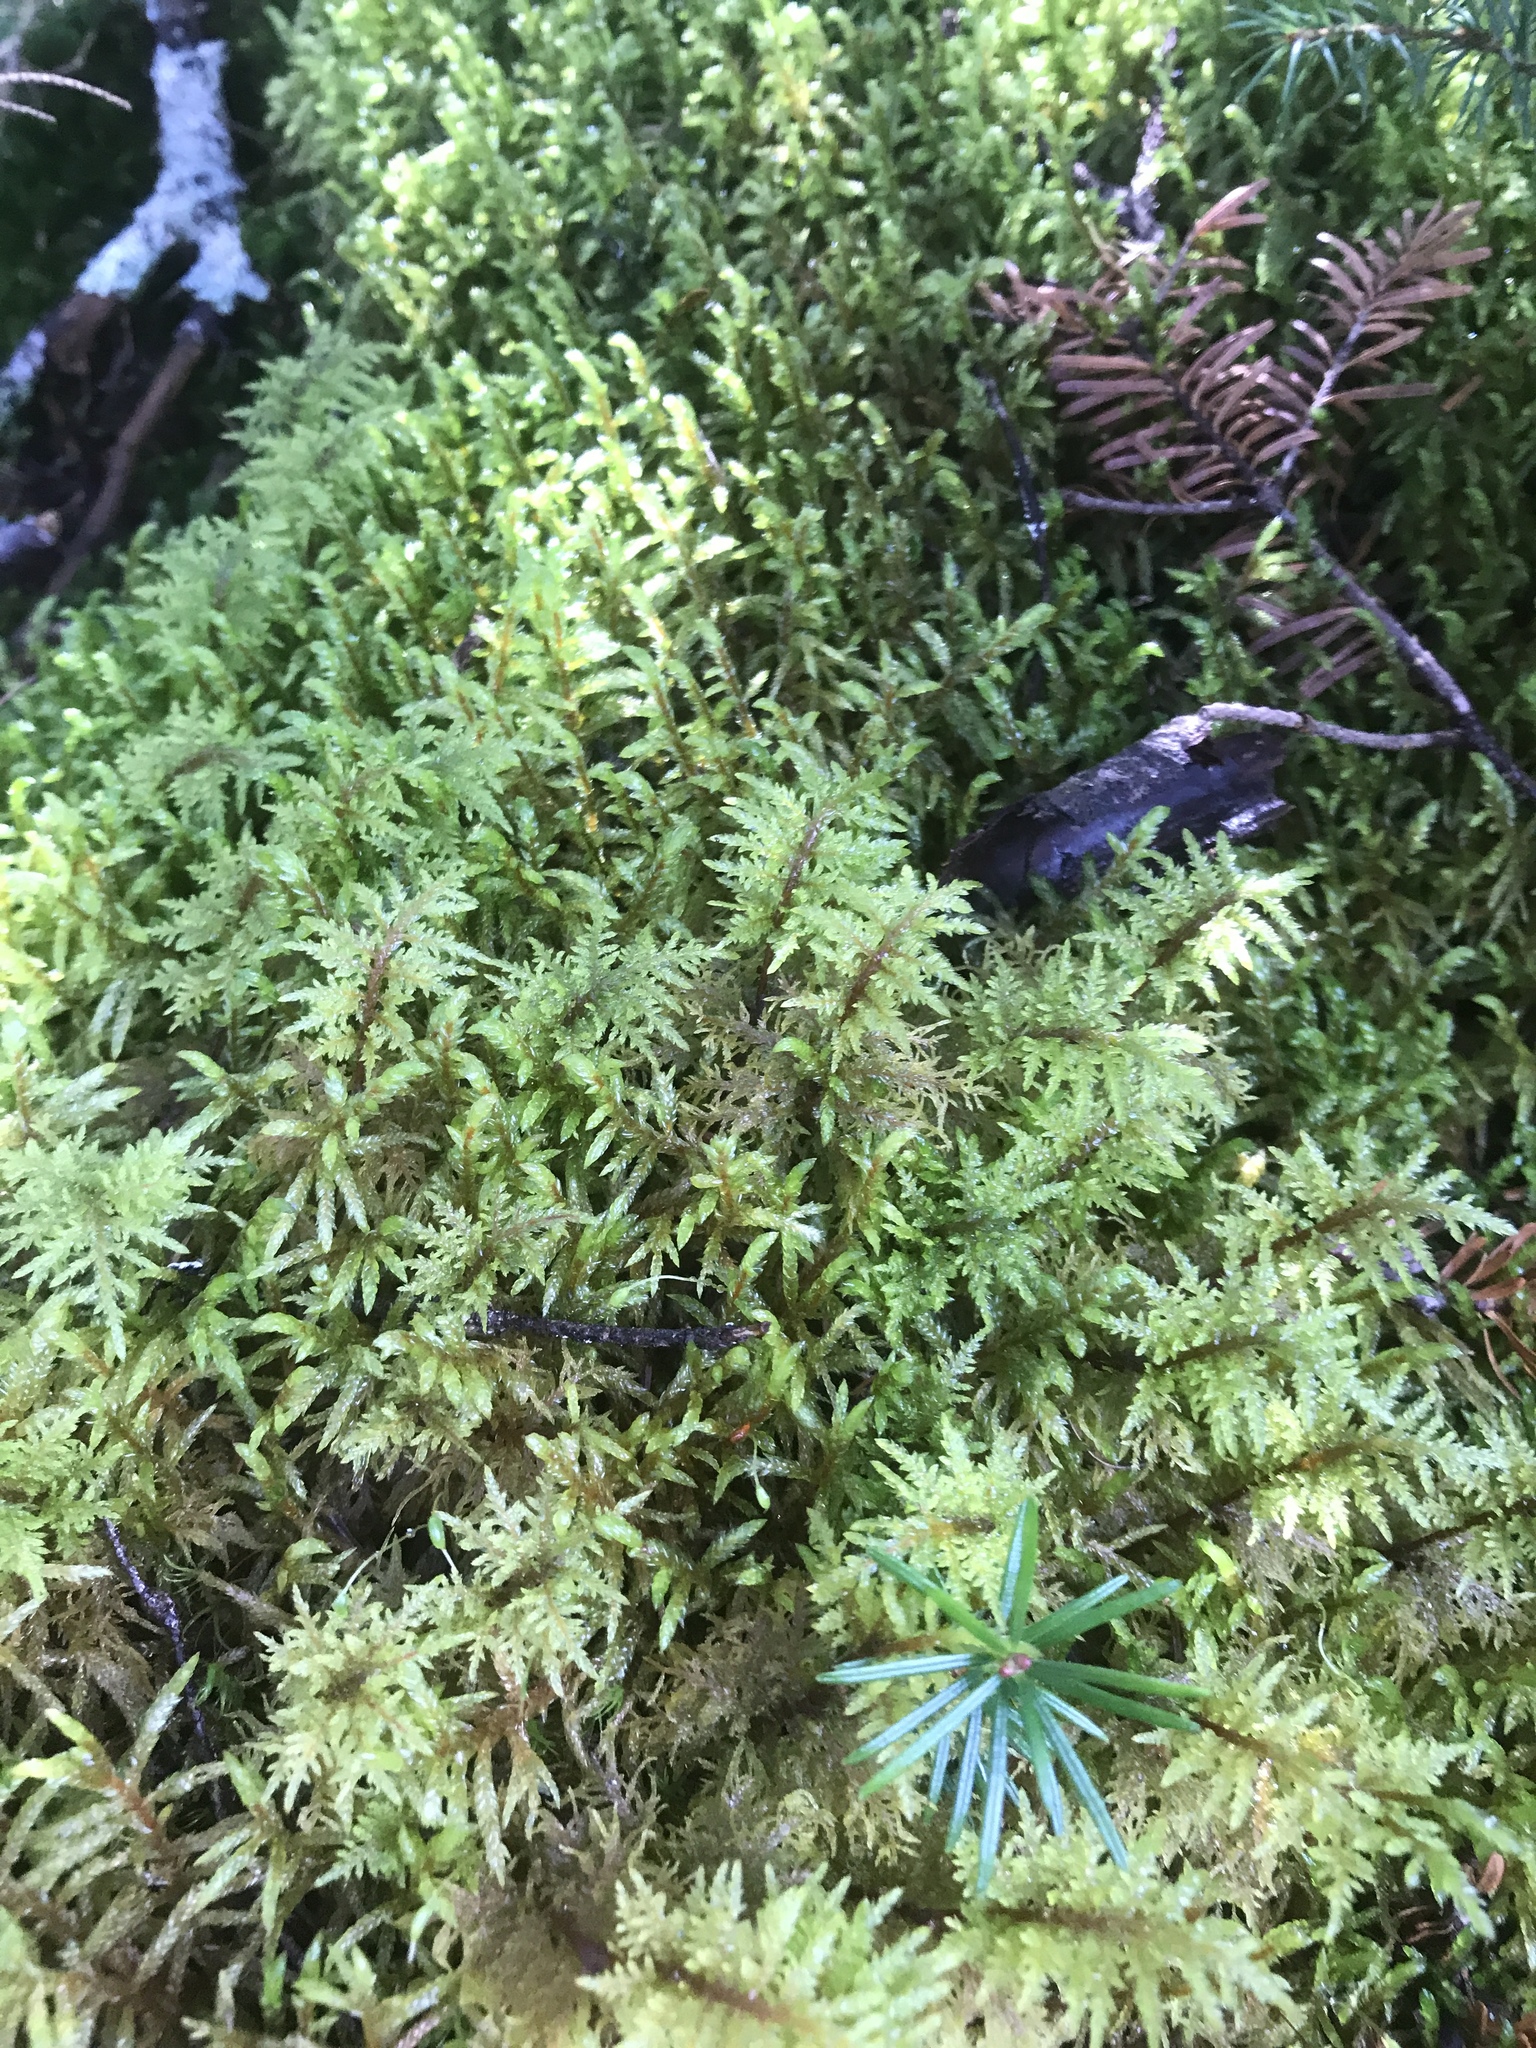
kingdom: Plantae
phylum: Bryophyta
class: Bryopsida
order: Hypnales
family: Hylocomiaceae
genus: Hylocomium
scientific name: Hylocomium splendens
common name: Stairstep moss
